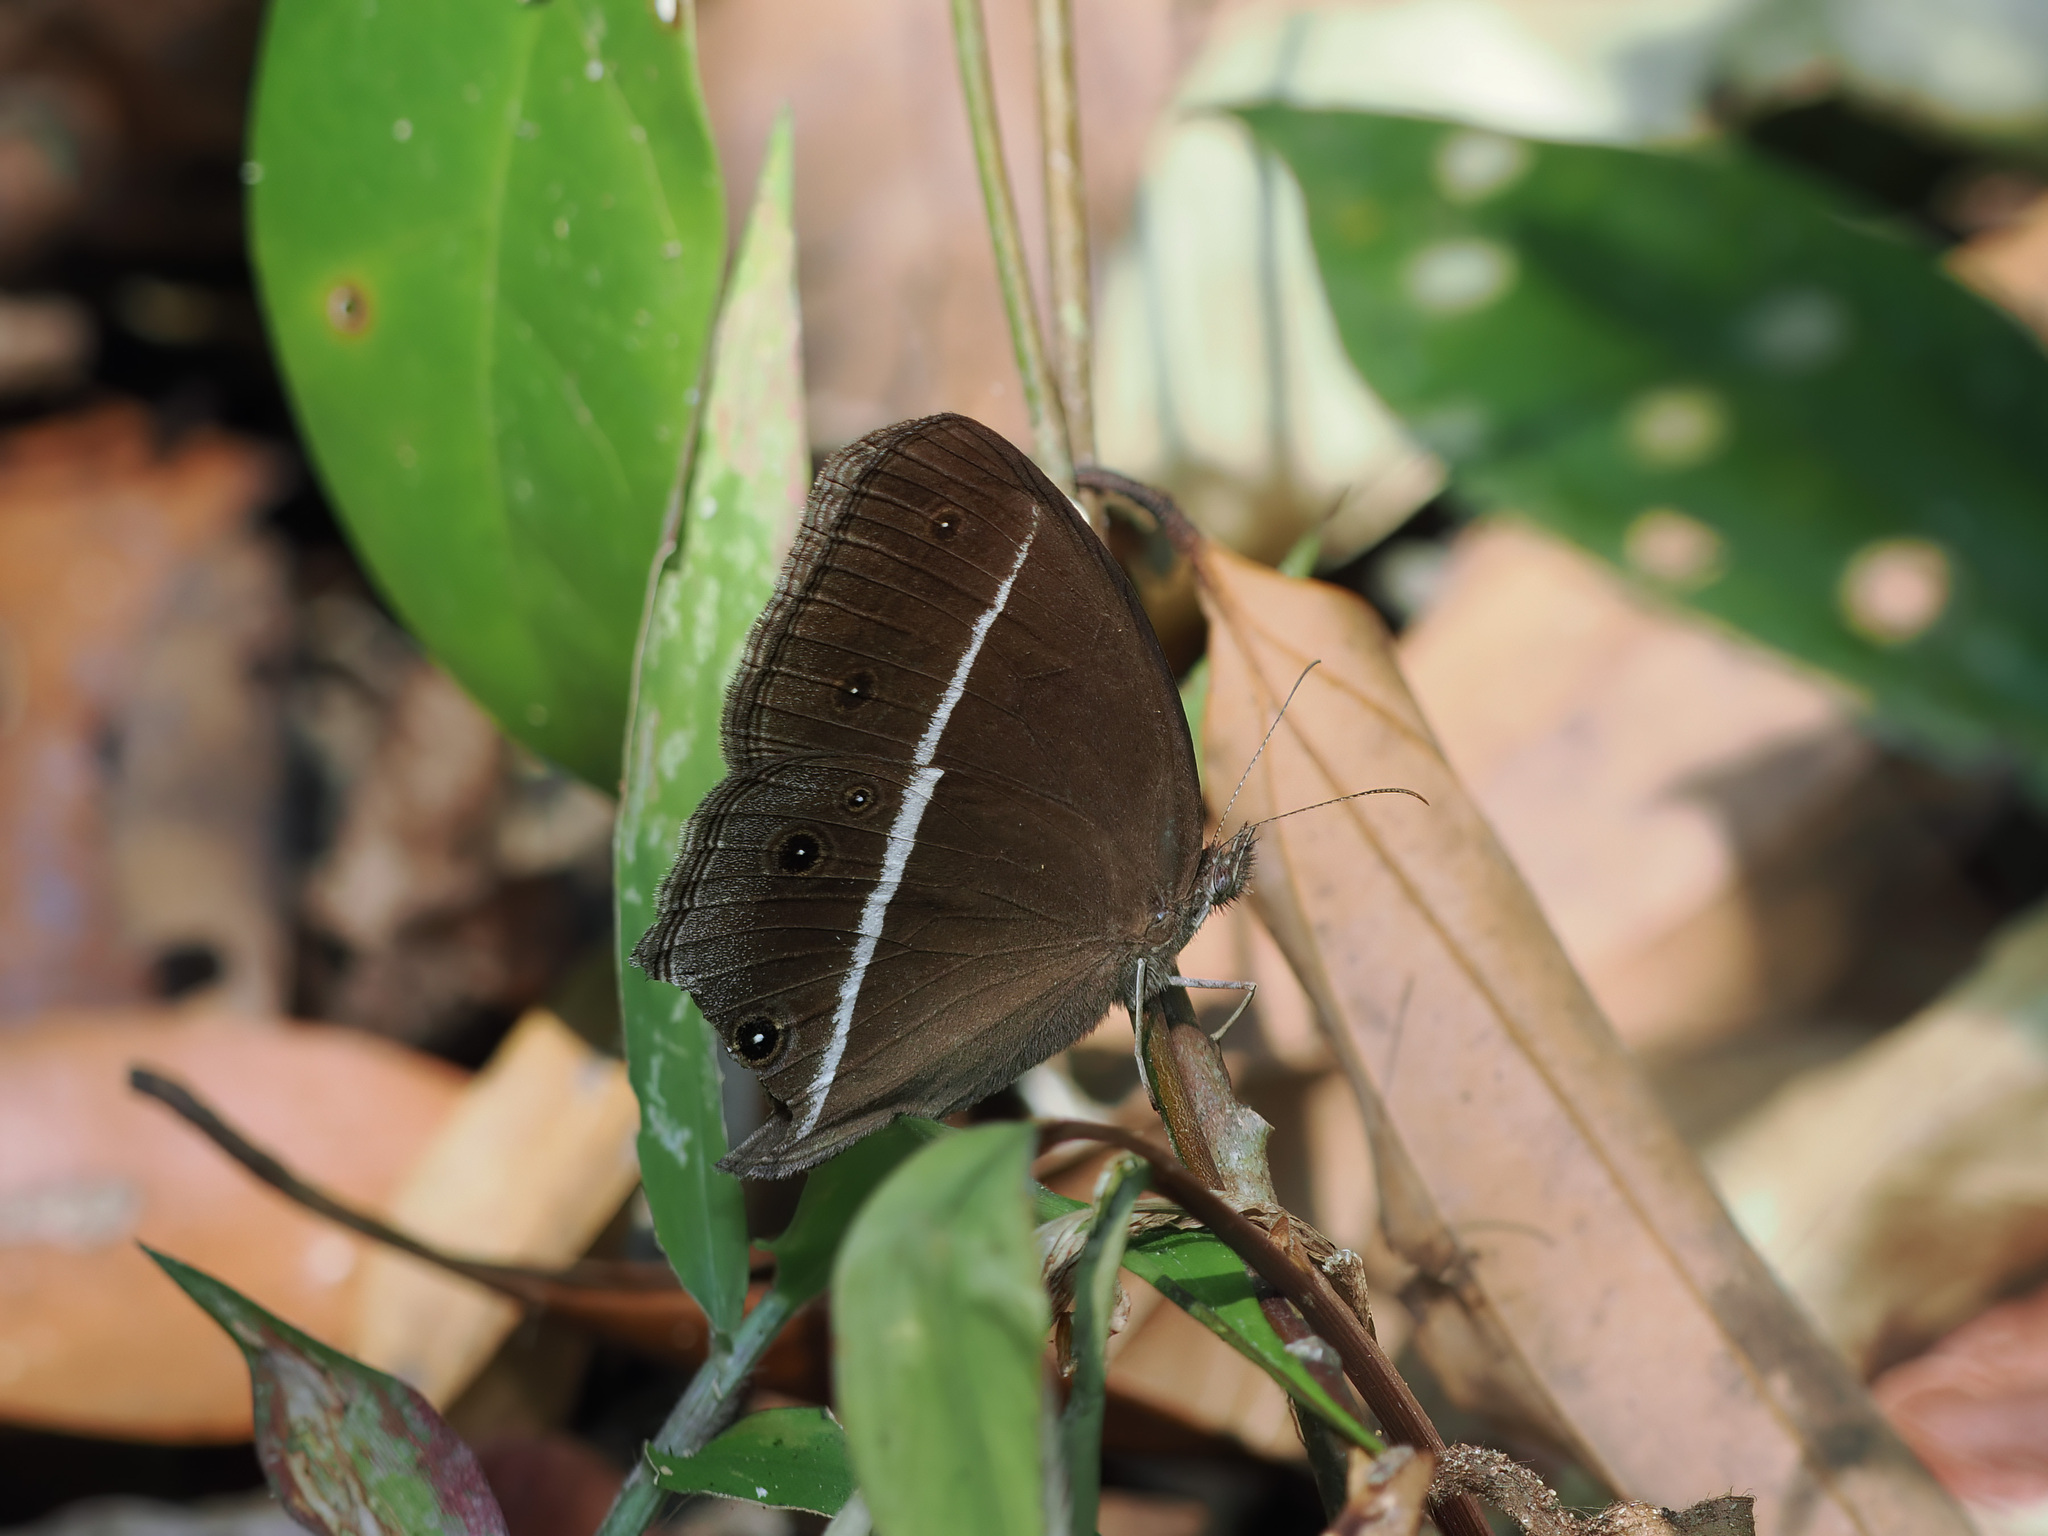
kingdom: Animalia
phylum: Arthropoda
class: Insecta
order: Lepidoptera
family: Nymphalidae
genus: Orsotriaena
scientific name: Orsotriaena medus
